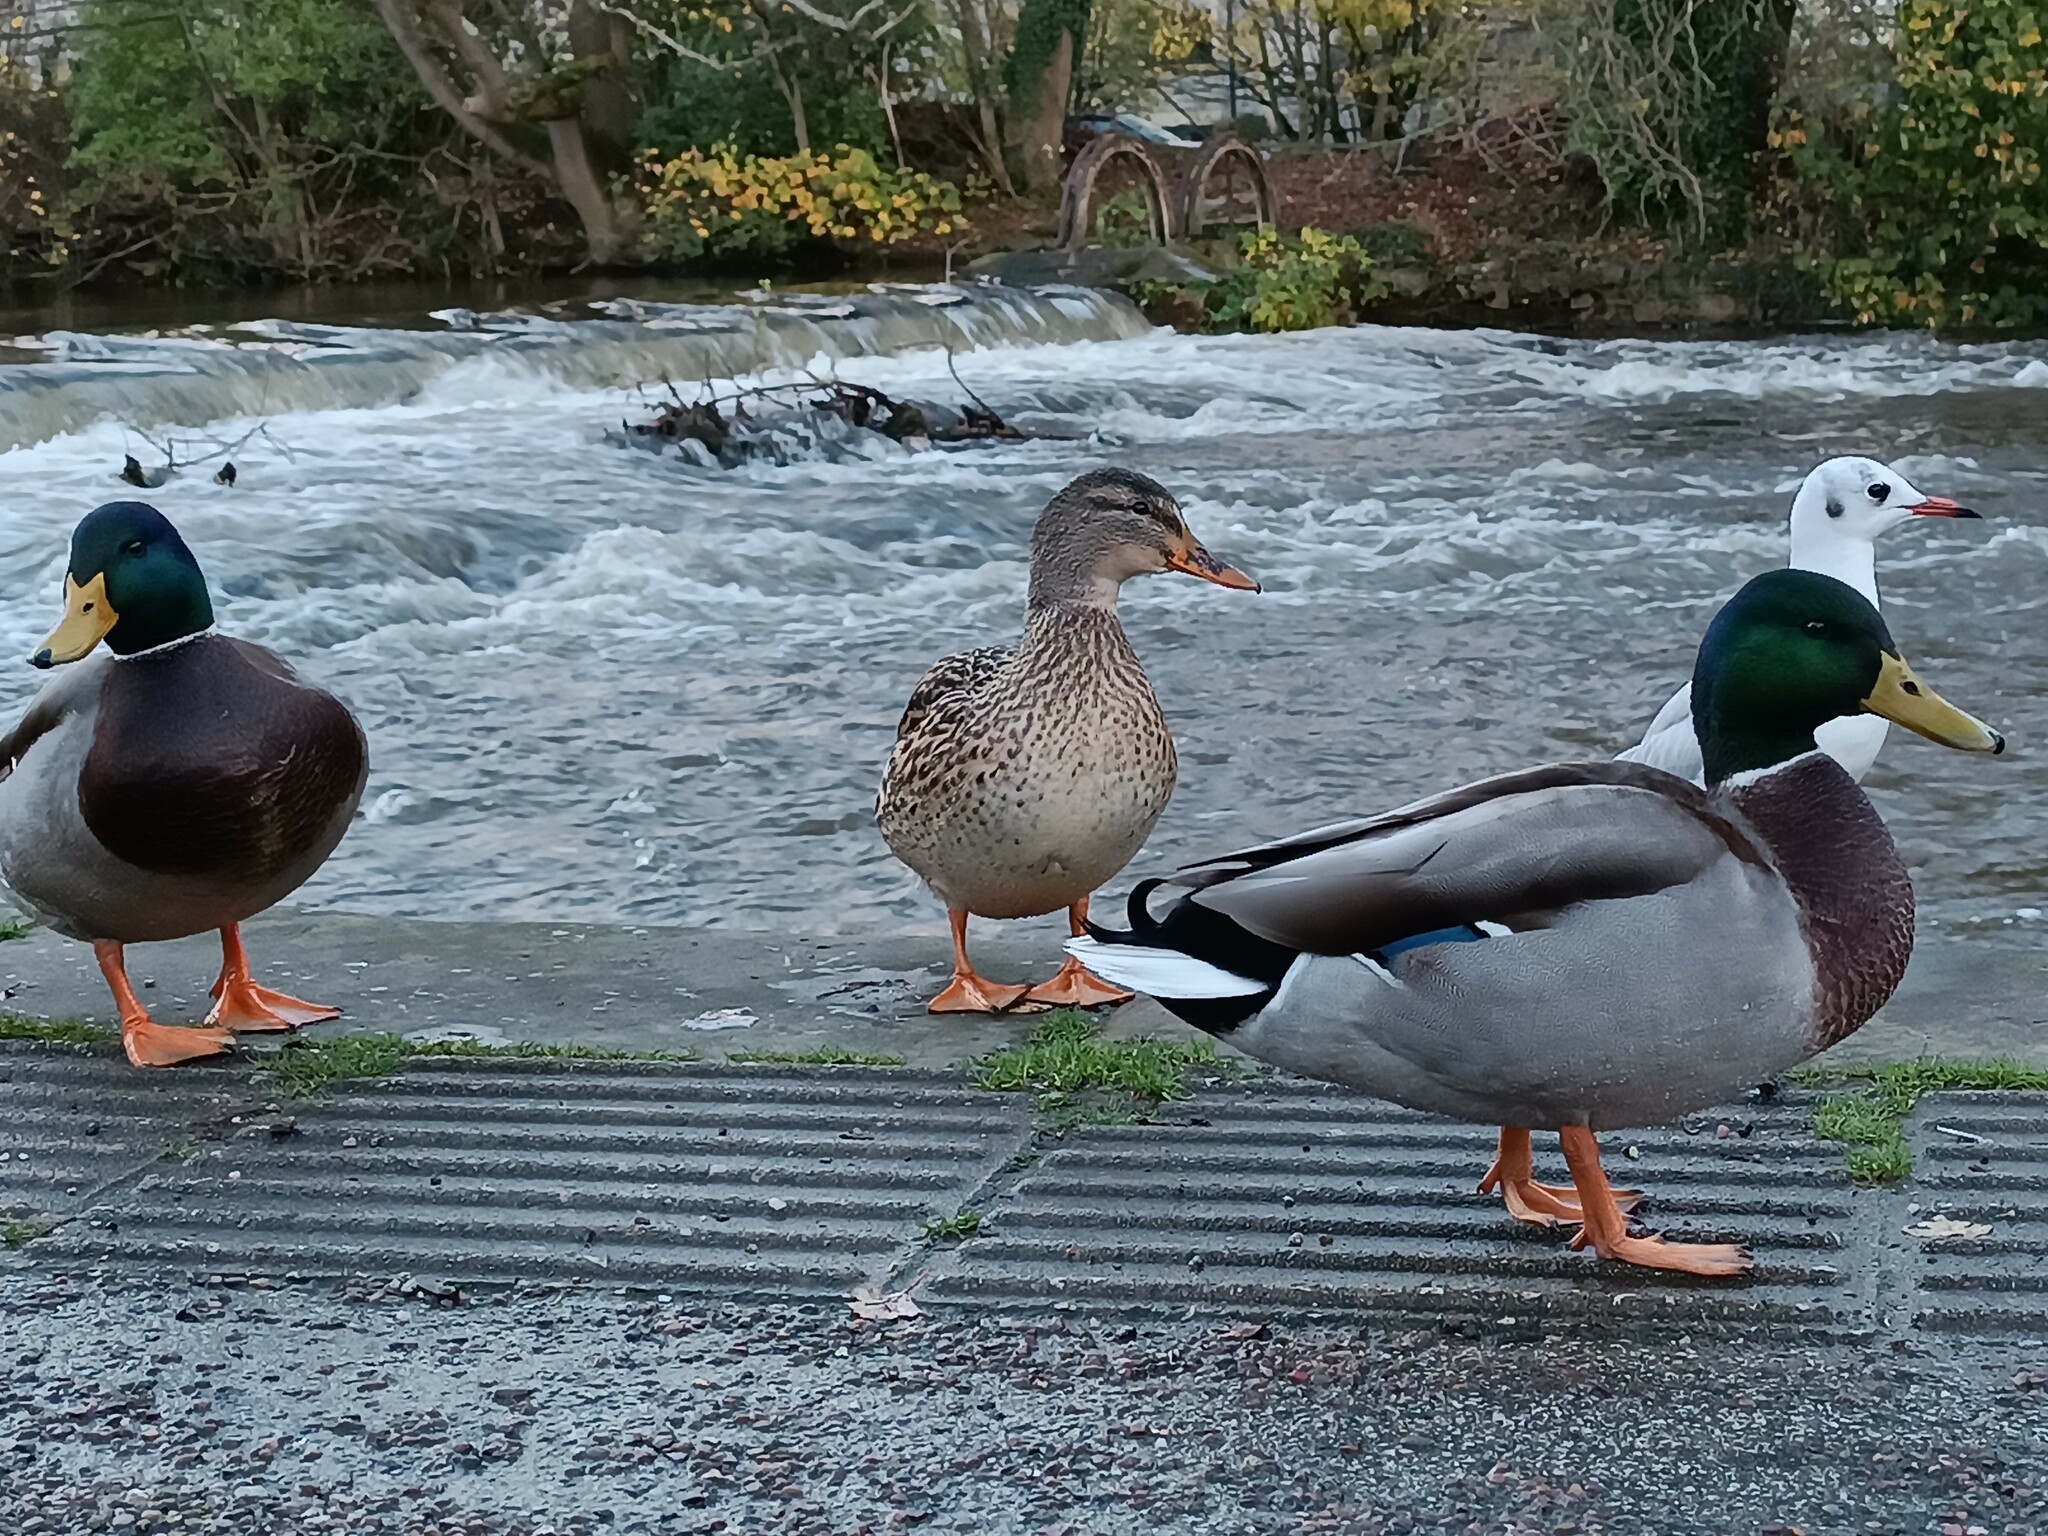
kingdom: Animalia
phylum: Chordata
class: Aves
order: Anseriformes
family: Anatidae
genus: Anas
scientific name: Anas platyrhynchos
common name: Mallard
